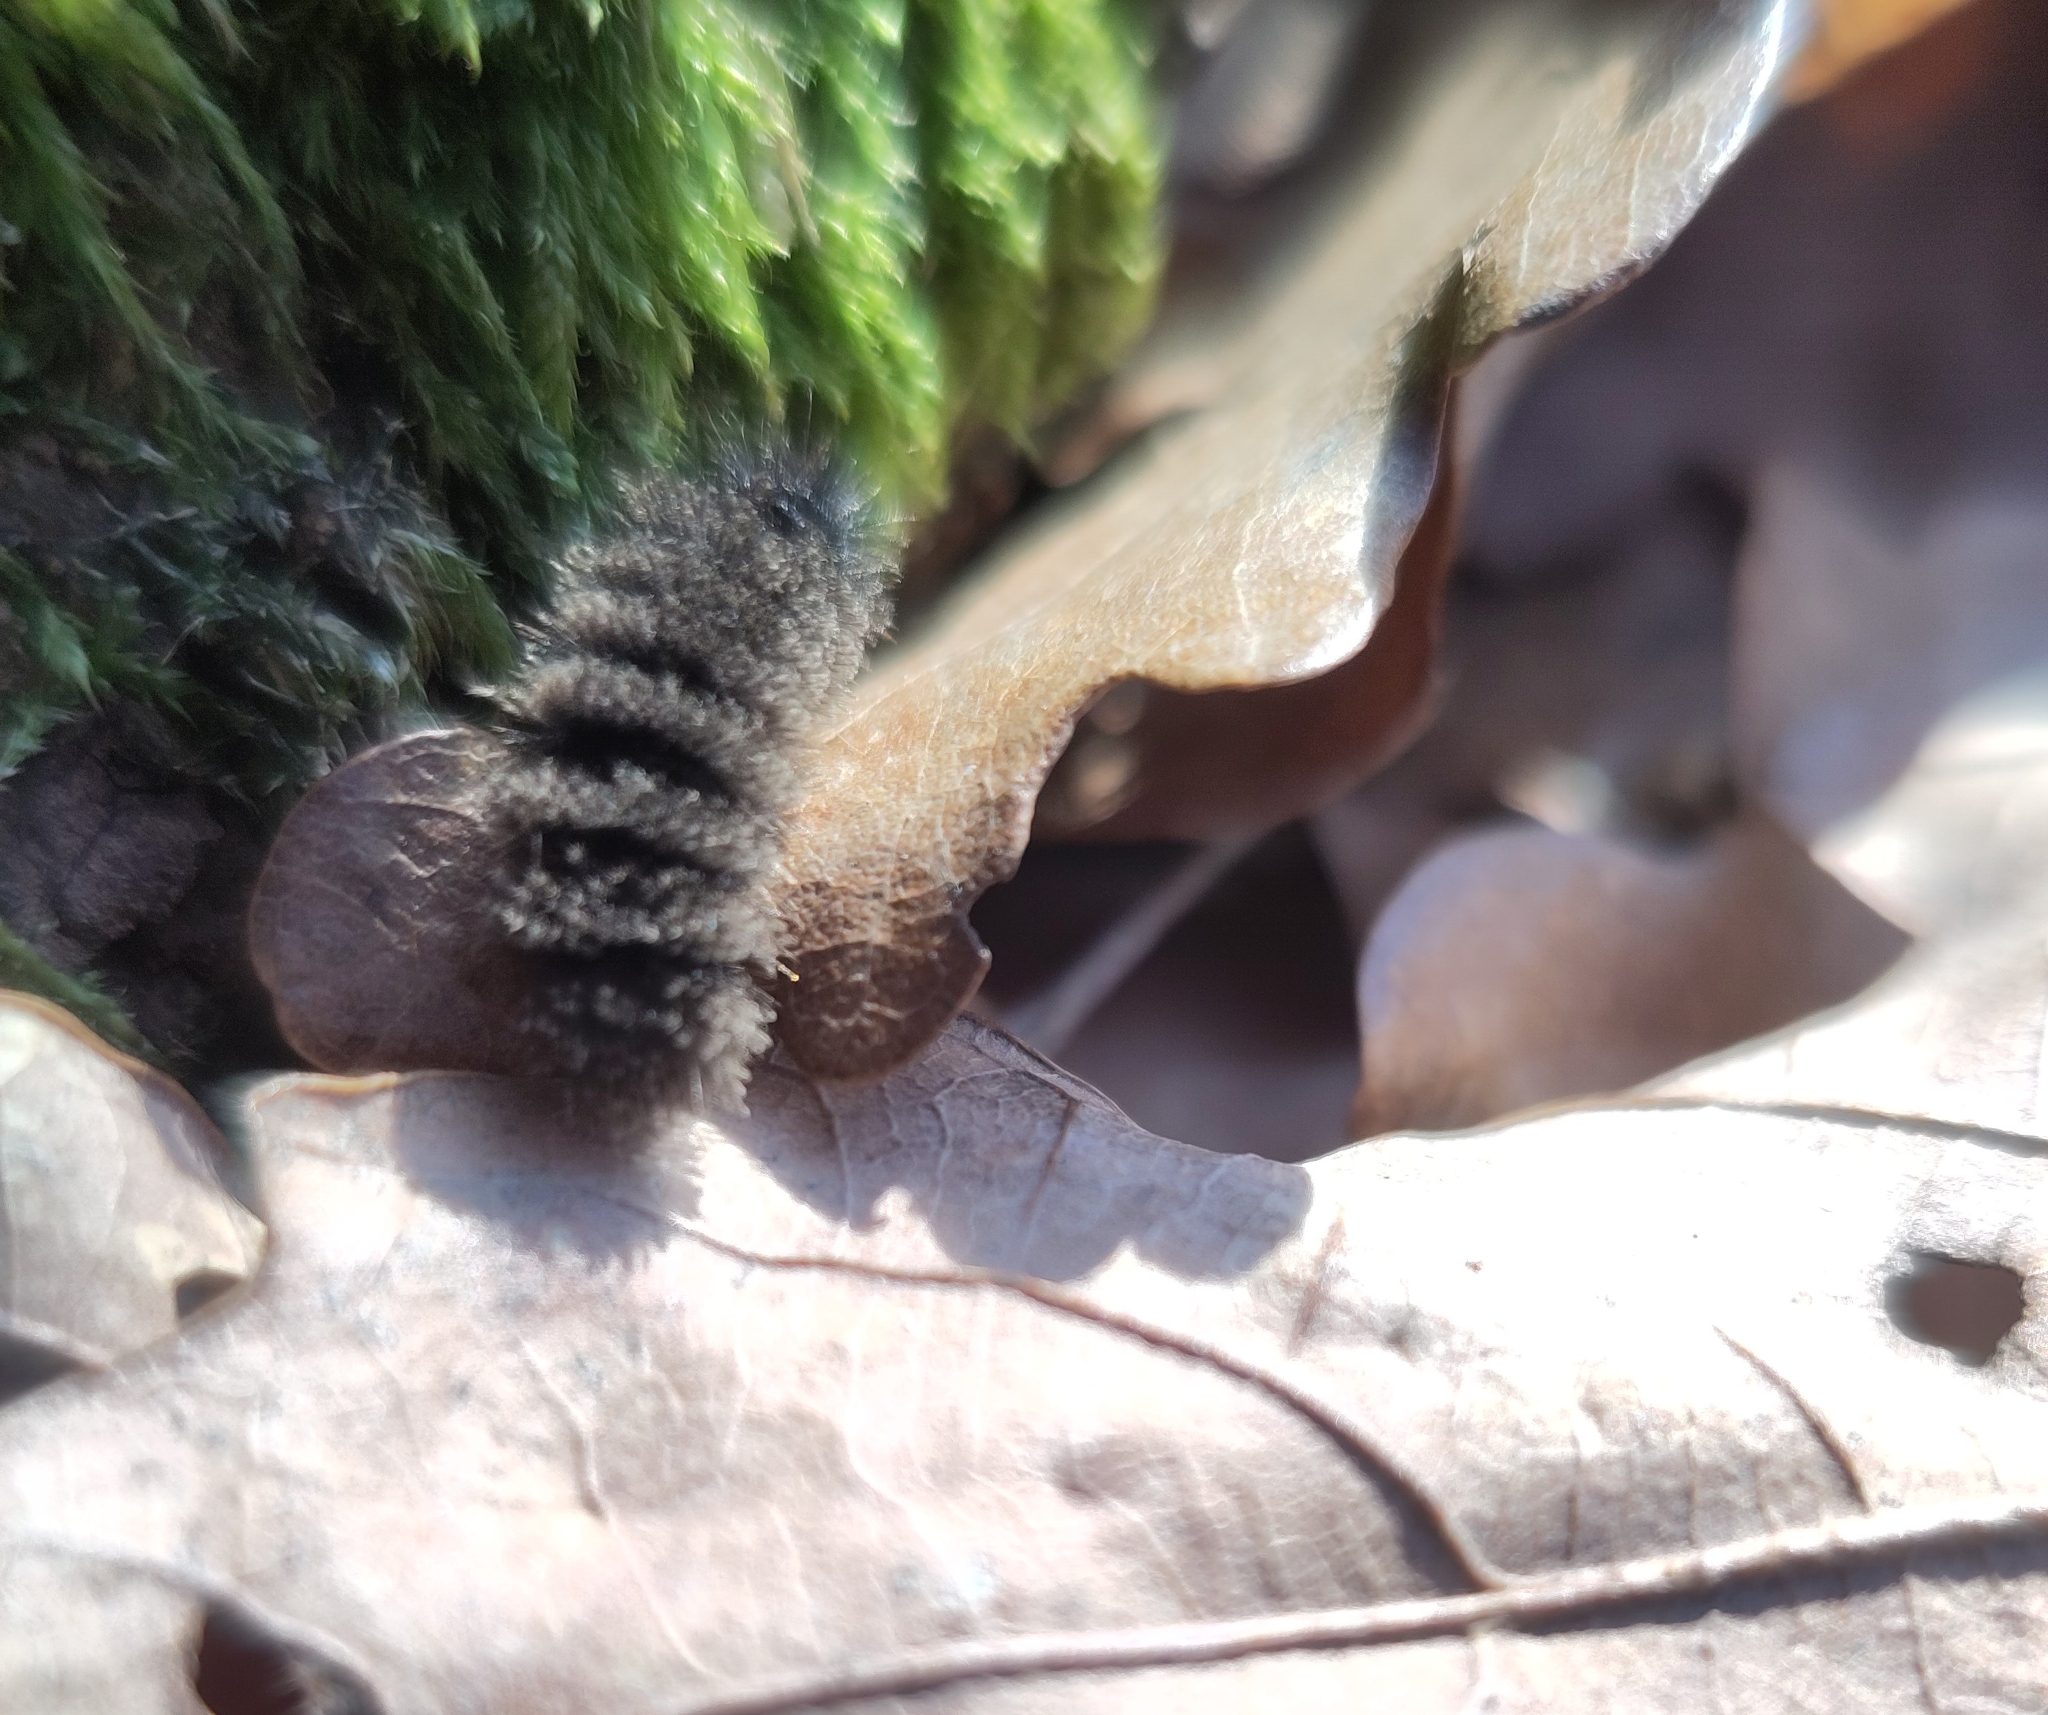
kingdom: Animalia
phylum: Arthropoda
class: Insecta
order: Lepidoptera
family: Erebidae
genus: Amata
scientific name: Amata phegea
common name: Nine-spotted
